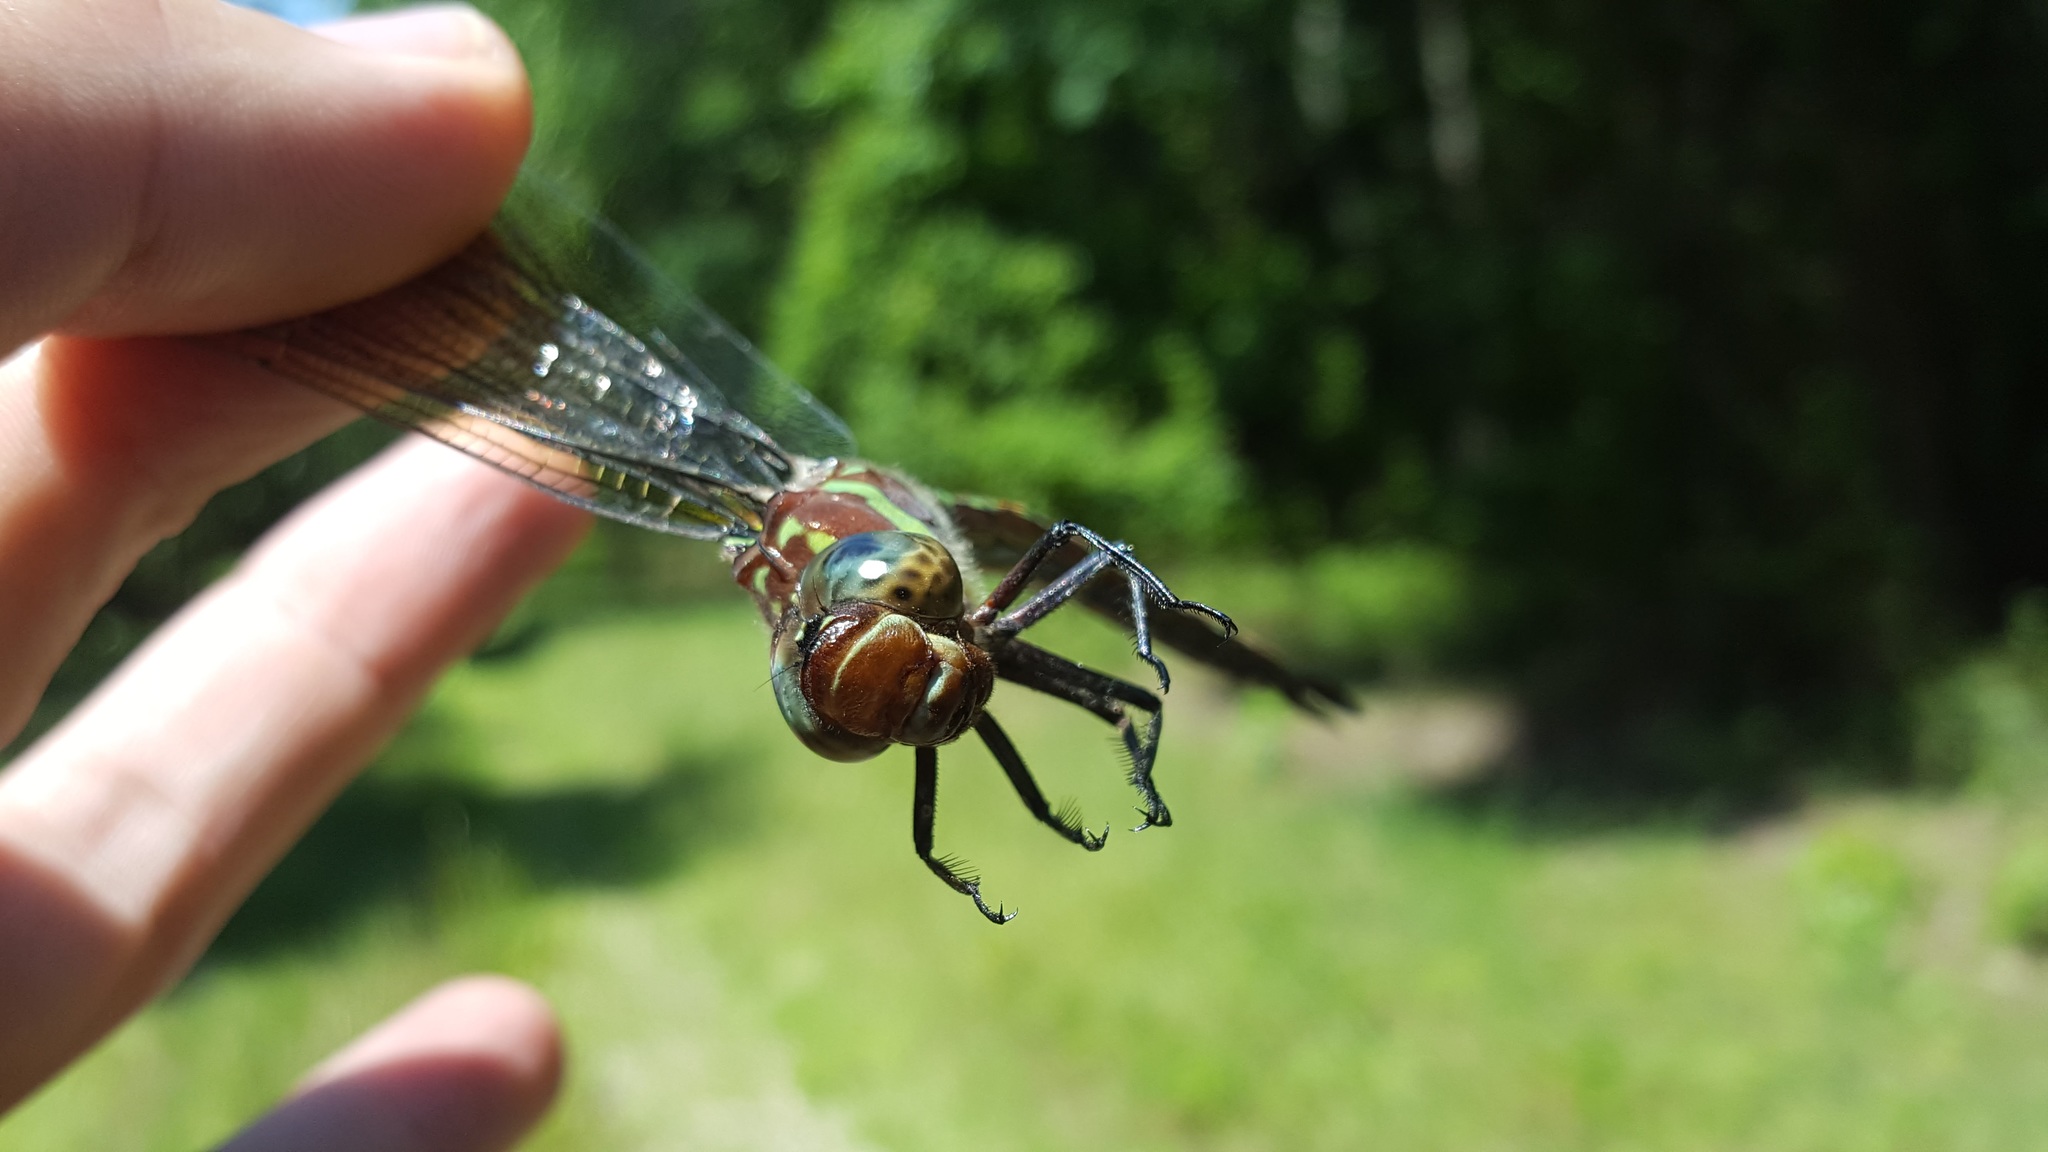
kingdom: Animalia
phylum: Arthropoda
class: Insecta
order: Odonata
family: Aeshnidae
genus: Epiaeschna
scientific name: Epiaeschna heros
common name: Swamp darner
